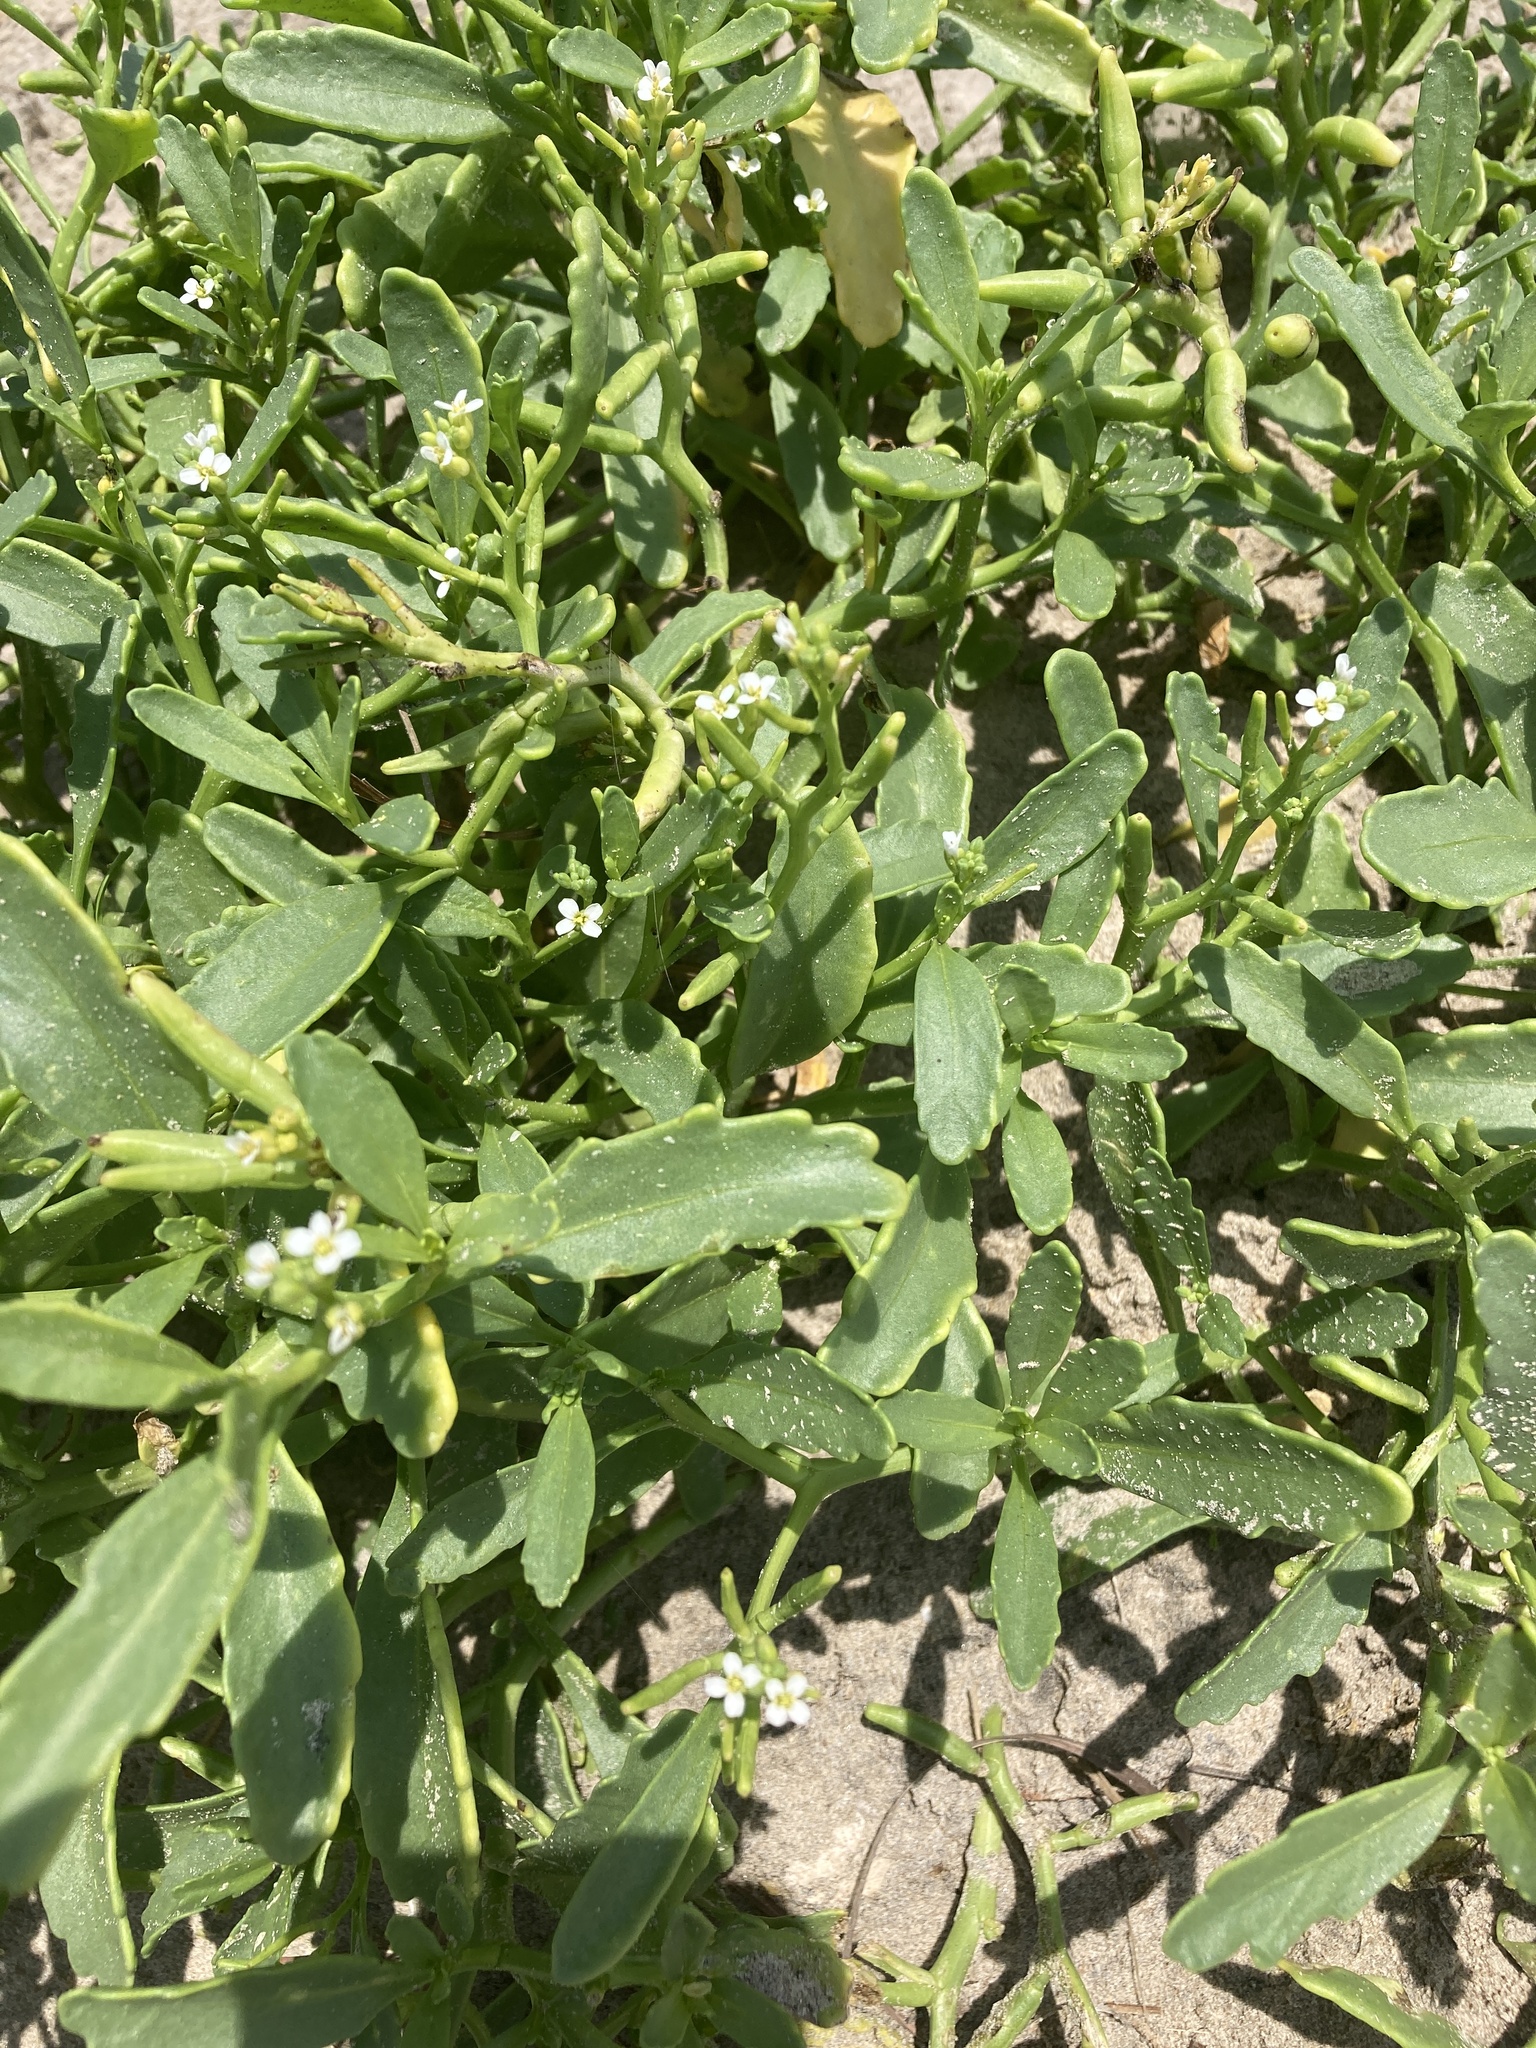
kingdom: Plantae
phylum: Tracheophyta
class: Magnoliopsida
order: Brassicales
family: Brassicaceae
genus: Cakile
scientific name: Cakile lanceolata
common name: Sea rocket
